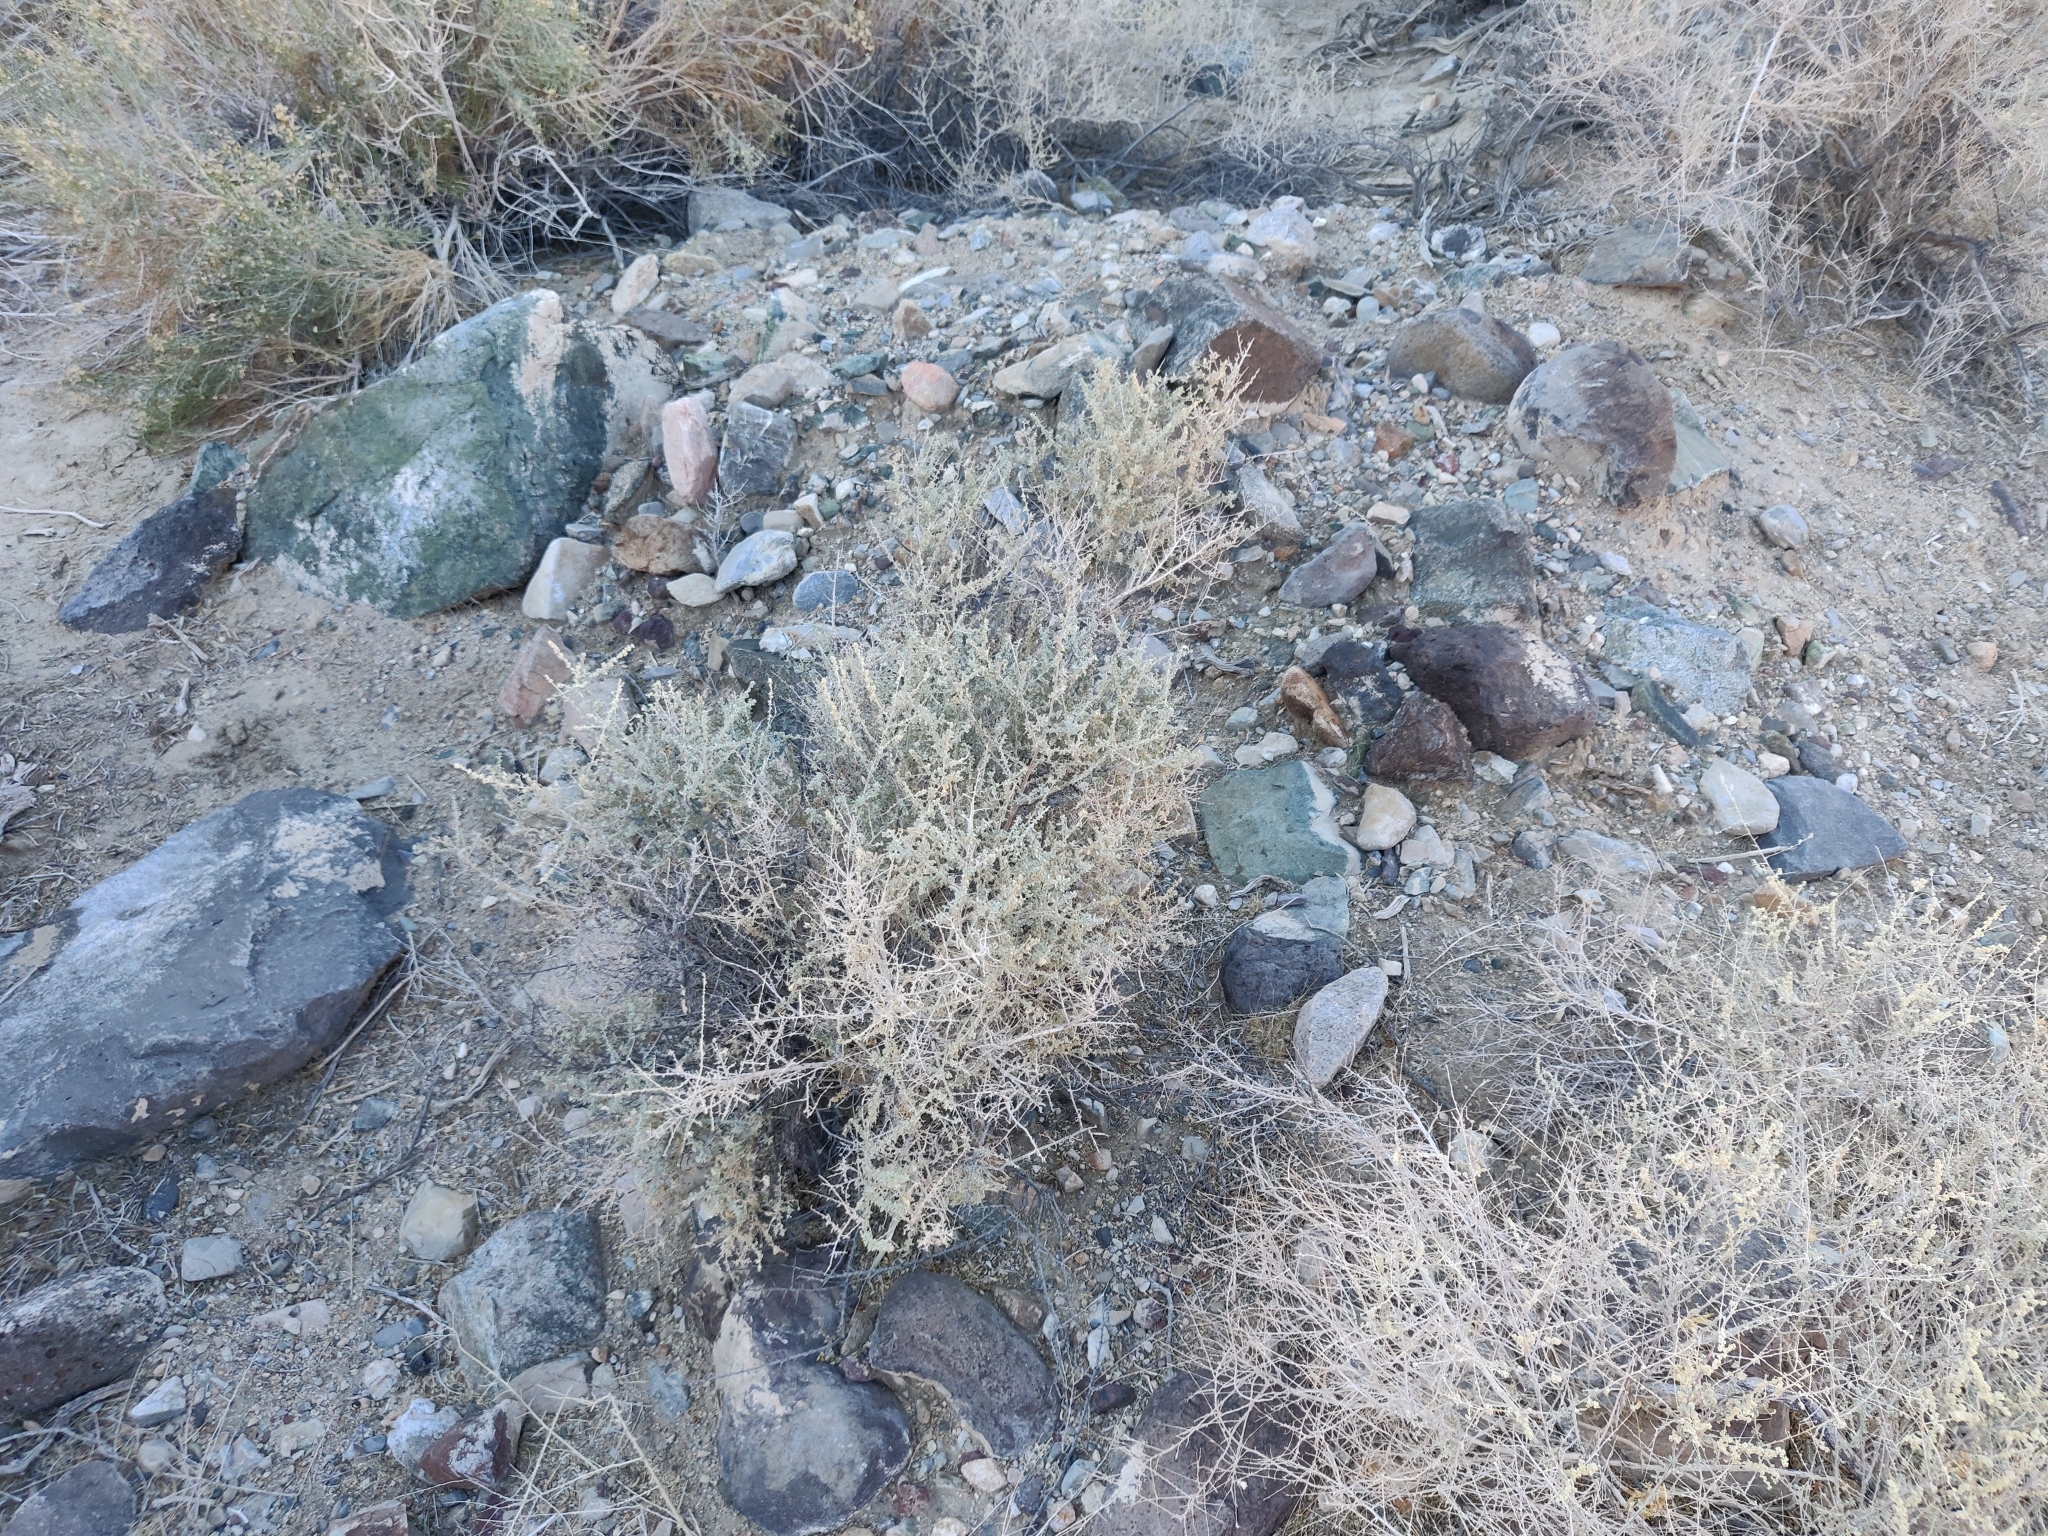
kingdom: Plantae
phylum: Tracheophyta
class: Magnoliopsida
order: Caryophyllales
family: Amaranthaceae
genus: Atriplex
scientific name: Atriplex polycarpa
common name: Desert saltbush
